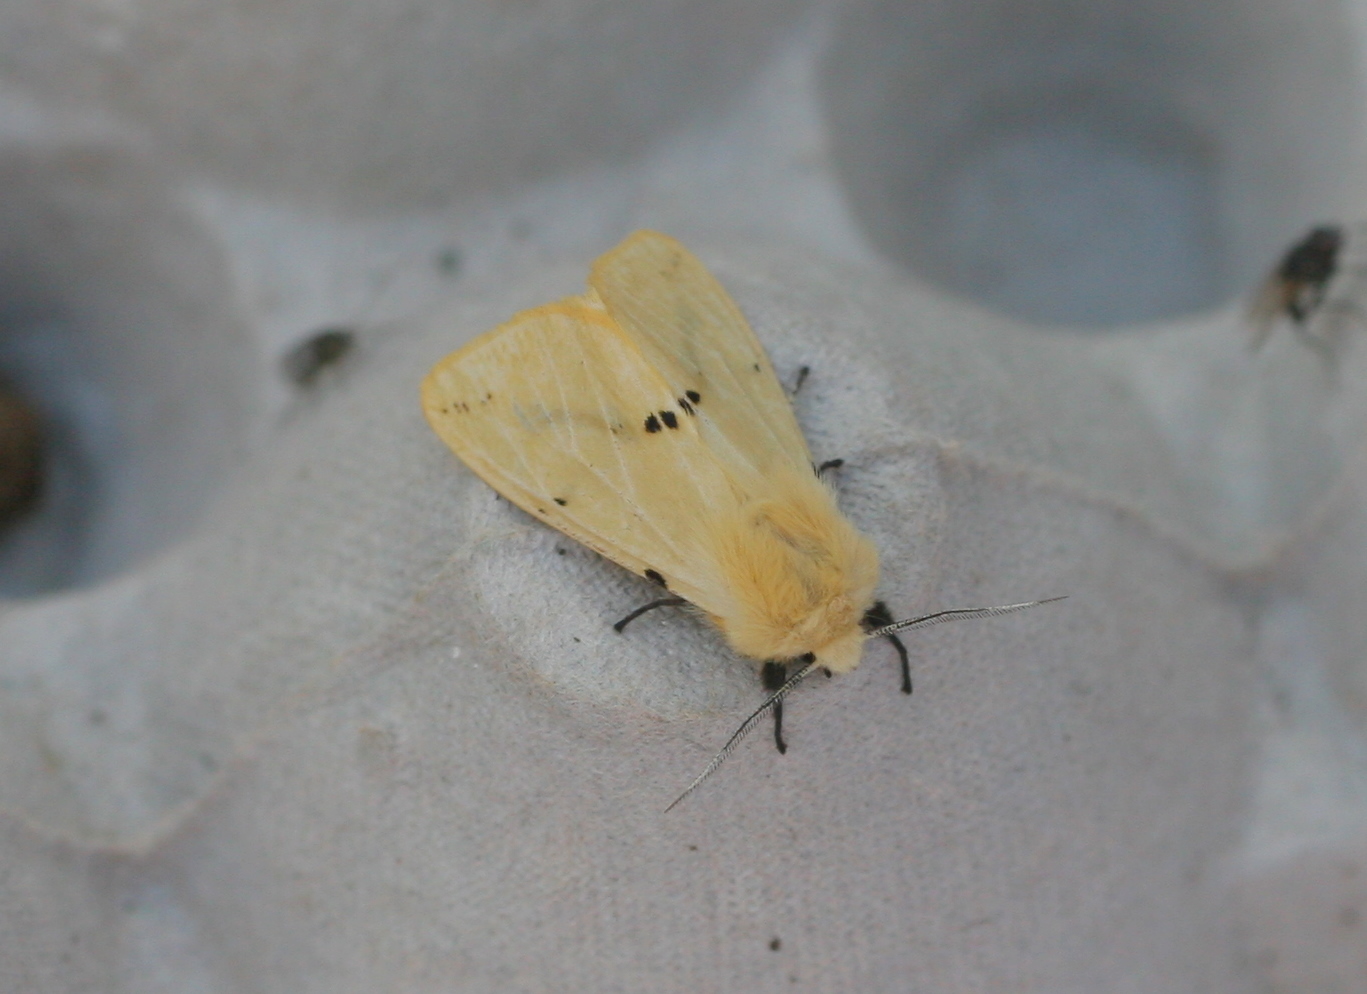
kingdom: Animalia
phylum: Arthropoda
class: Insecta
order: Lepidoptera
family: Erebidae
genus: Spilarctia
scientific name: Spilarctia lutea
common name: Buff ermine
